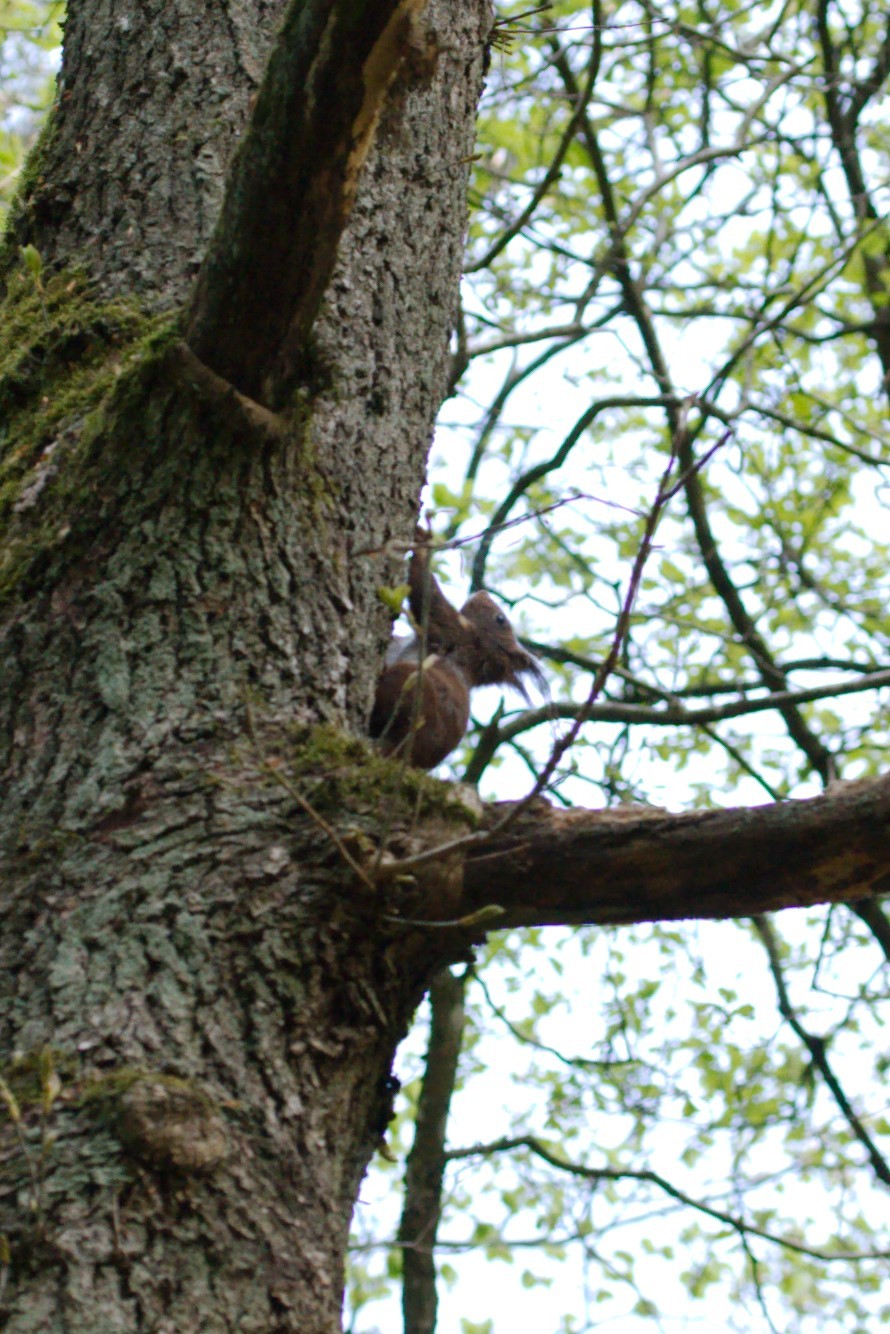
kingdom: Animalia
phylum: Chordata
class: Mammalia
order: Rodentia
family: Sciuridae
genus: Sciurus
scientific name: Sciurus vulgaris
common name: Eurasian red squirrel
